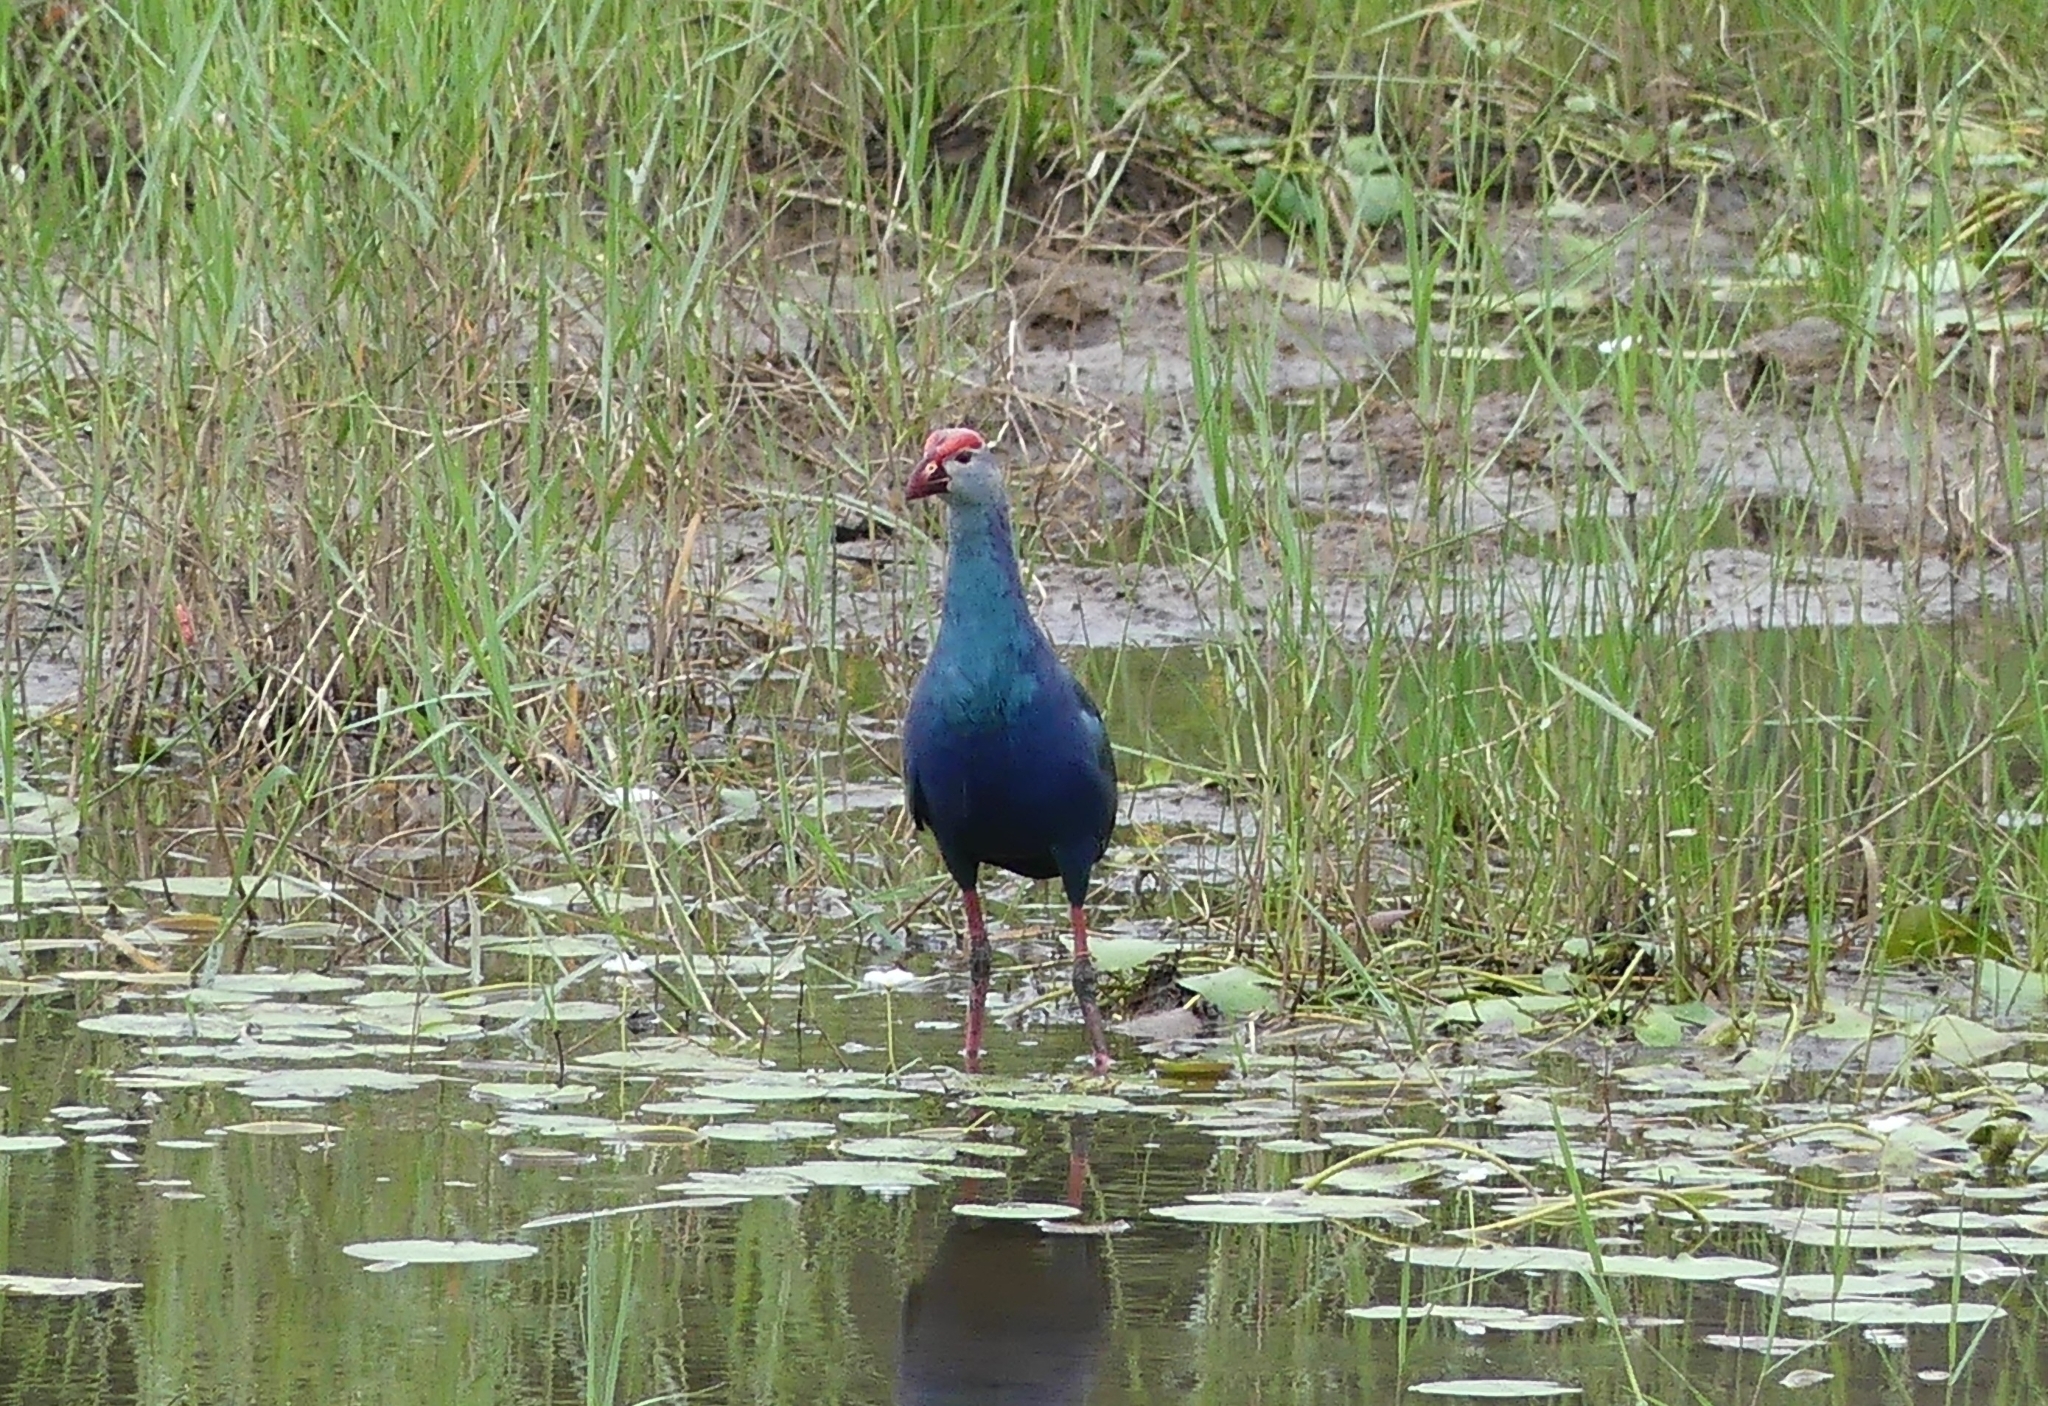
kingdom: Animalia
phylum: Chordata
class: Aves
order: Gruiformes
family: Rallidae
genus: Porphyrio
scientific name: Porphyrio porphyrio
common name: Purple swamphen
